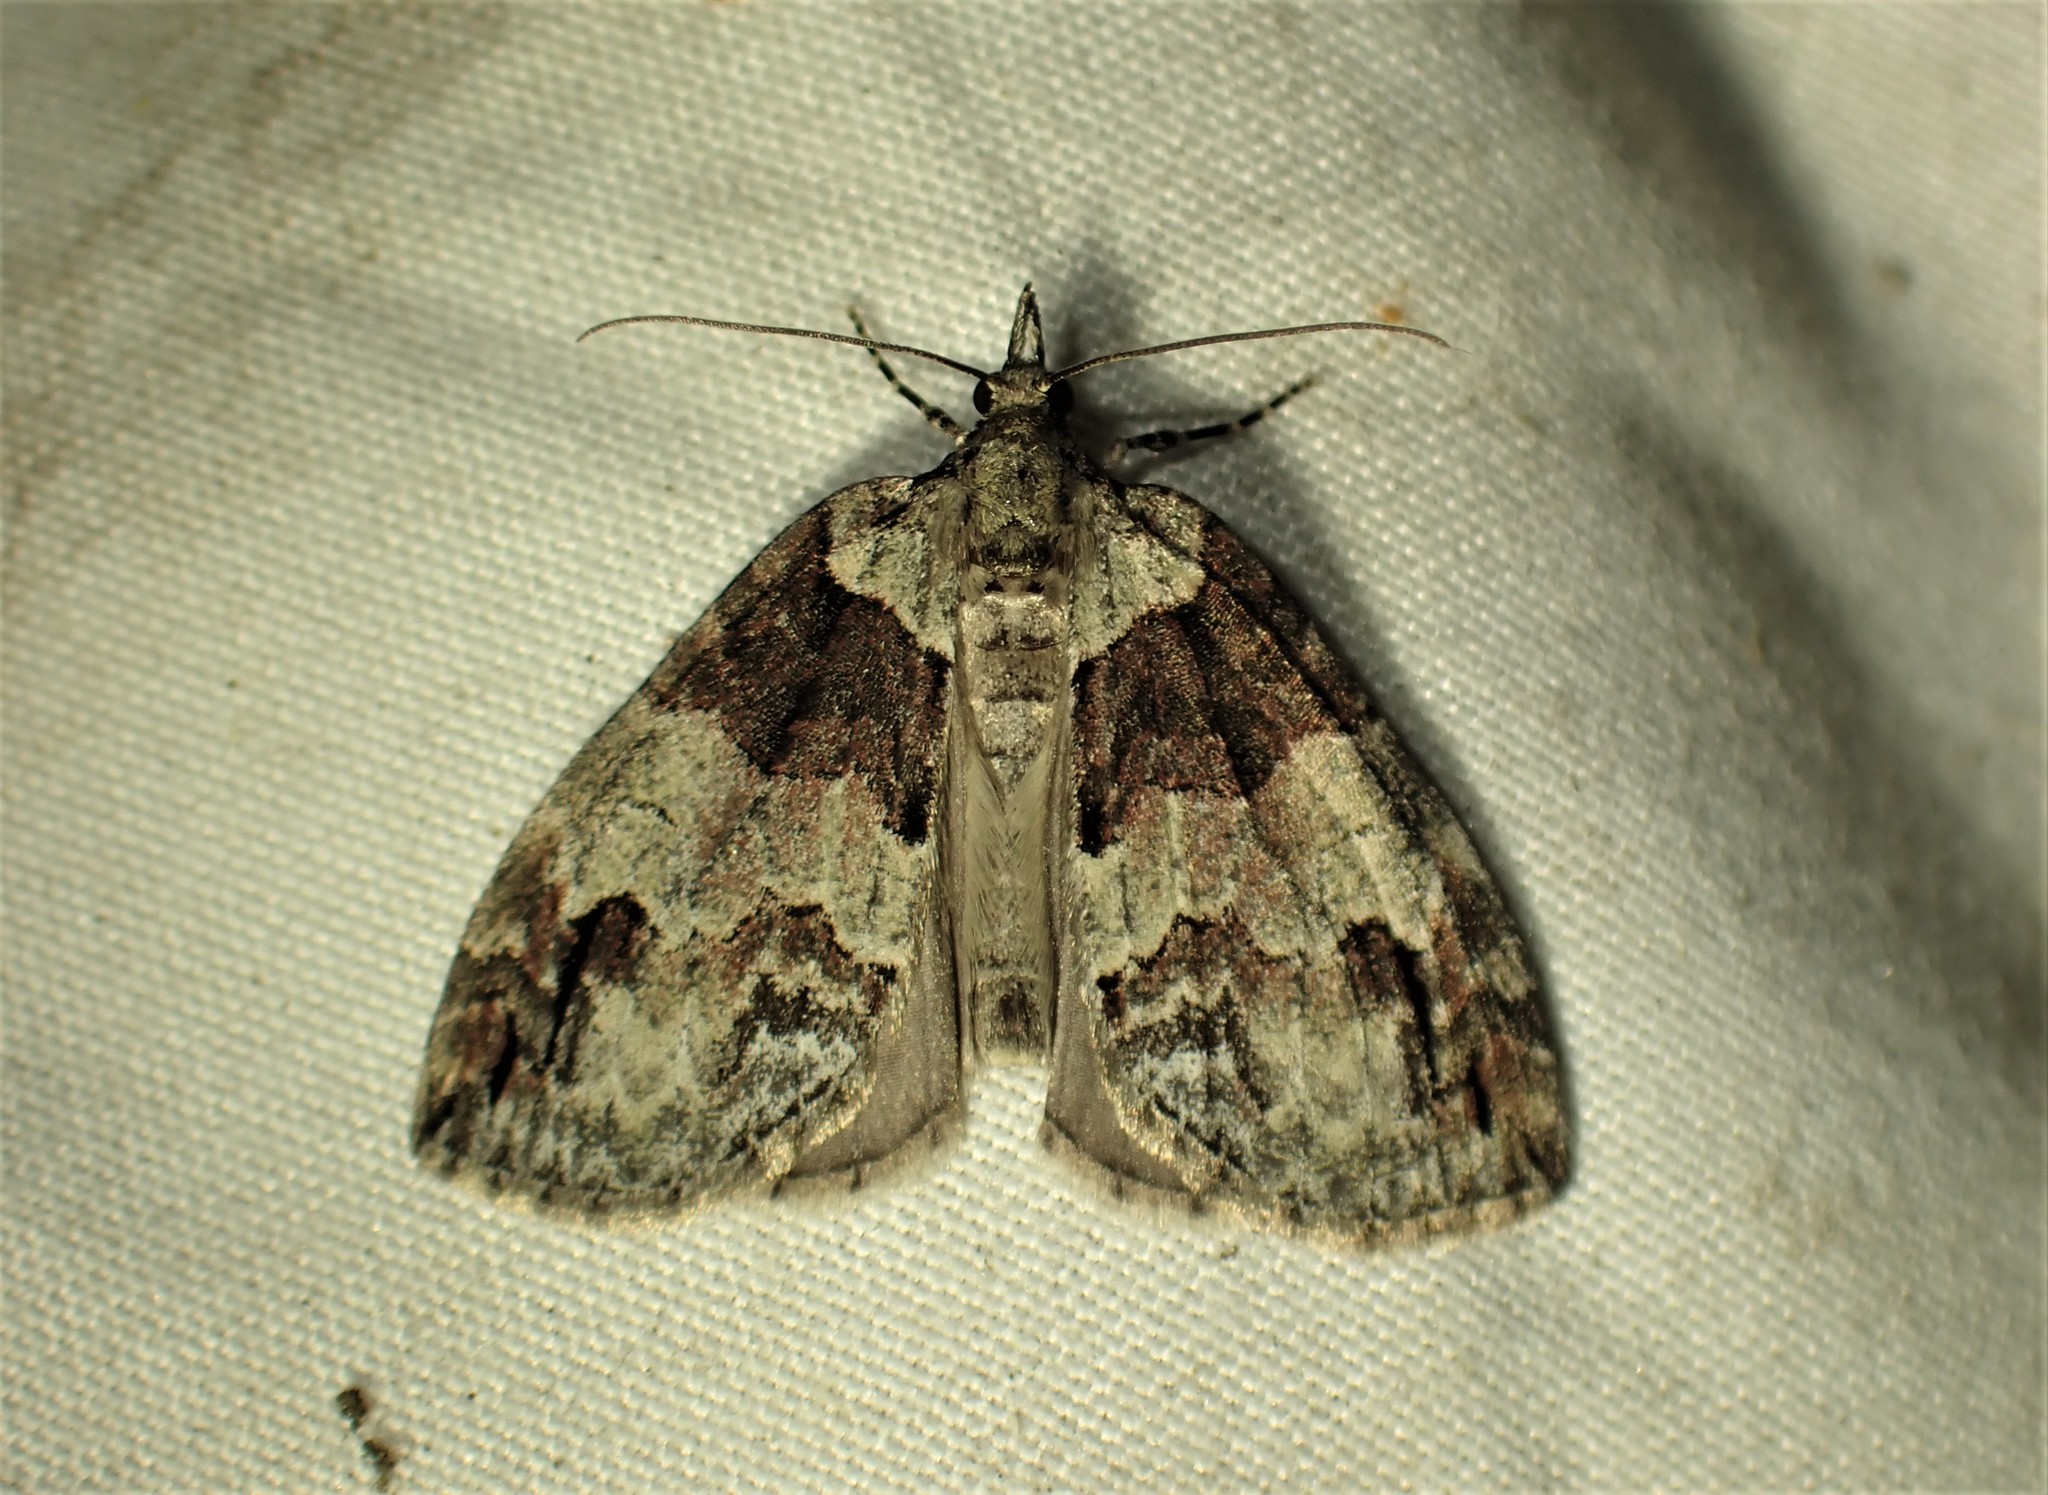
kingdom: Animalia
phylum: Arthropoda
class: Insecta
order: Lepidoptera
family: Geometridae
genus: Hydriomena
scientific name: Hydriomena ruberata
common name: Ruddy highflyer
